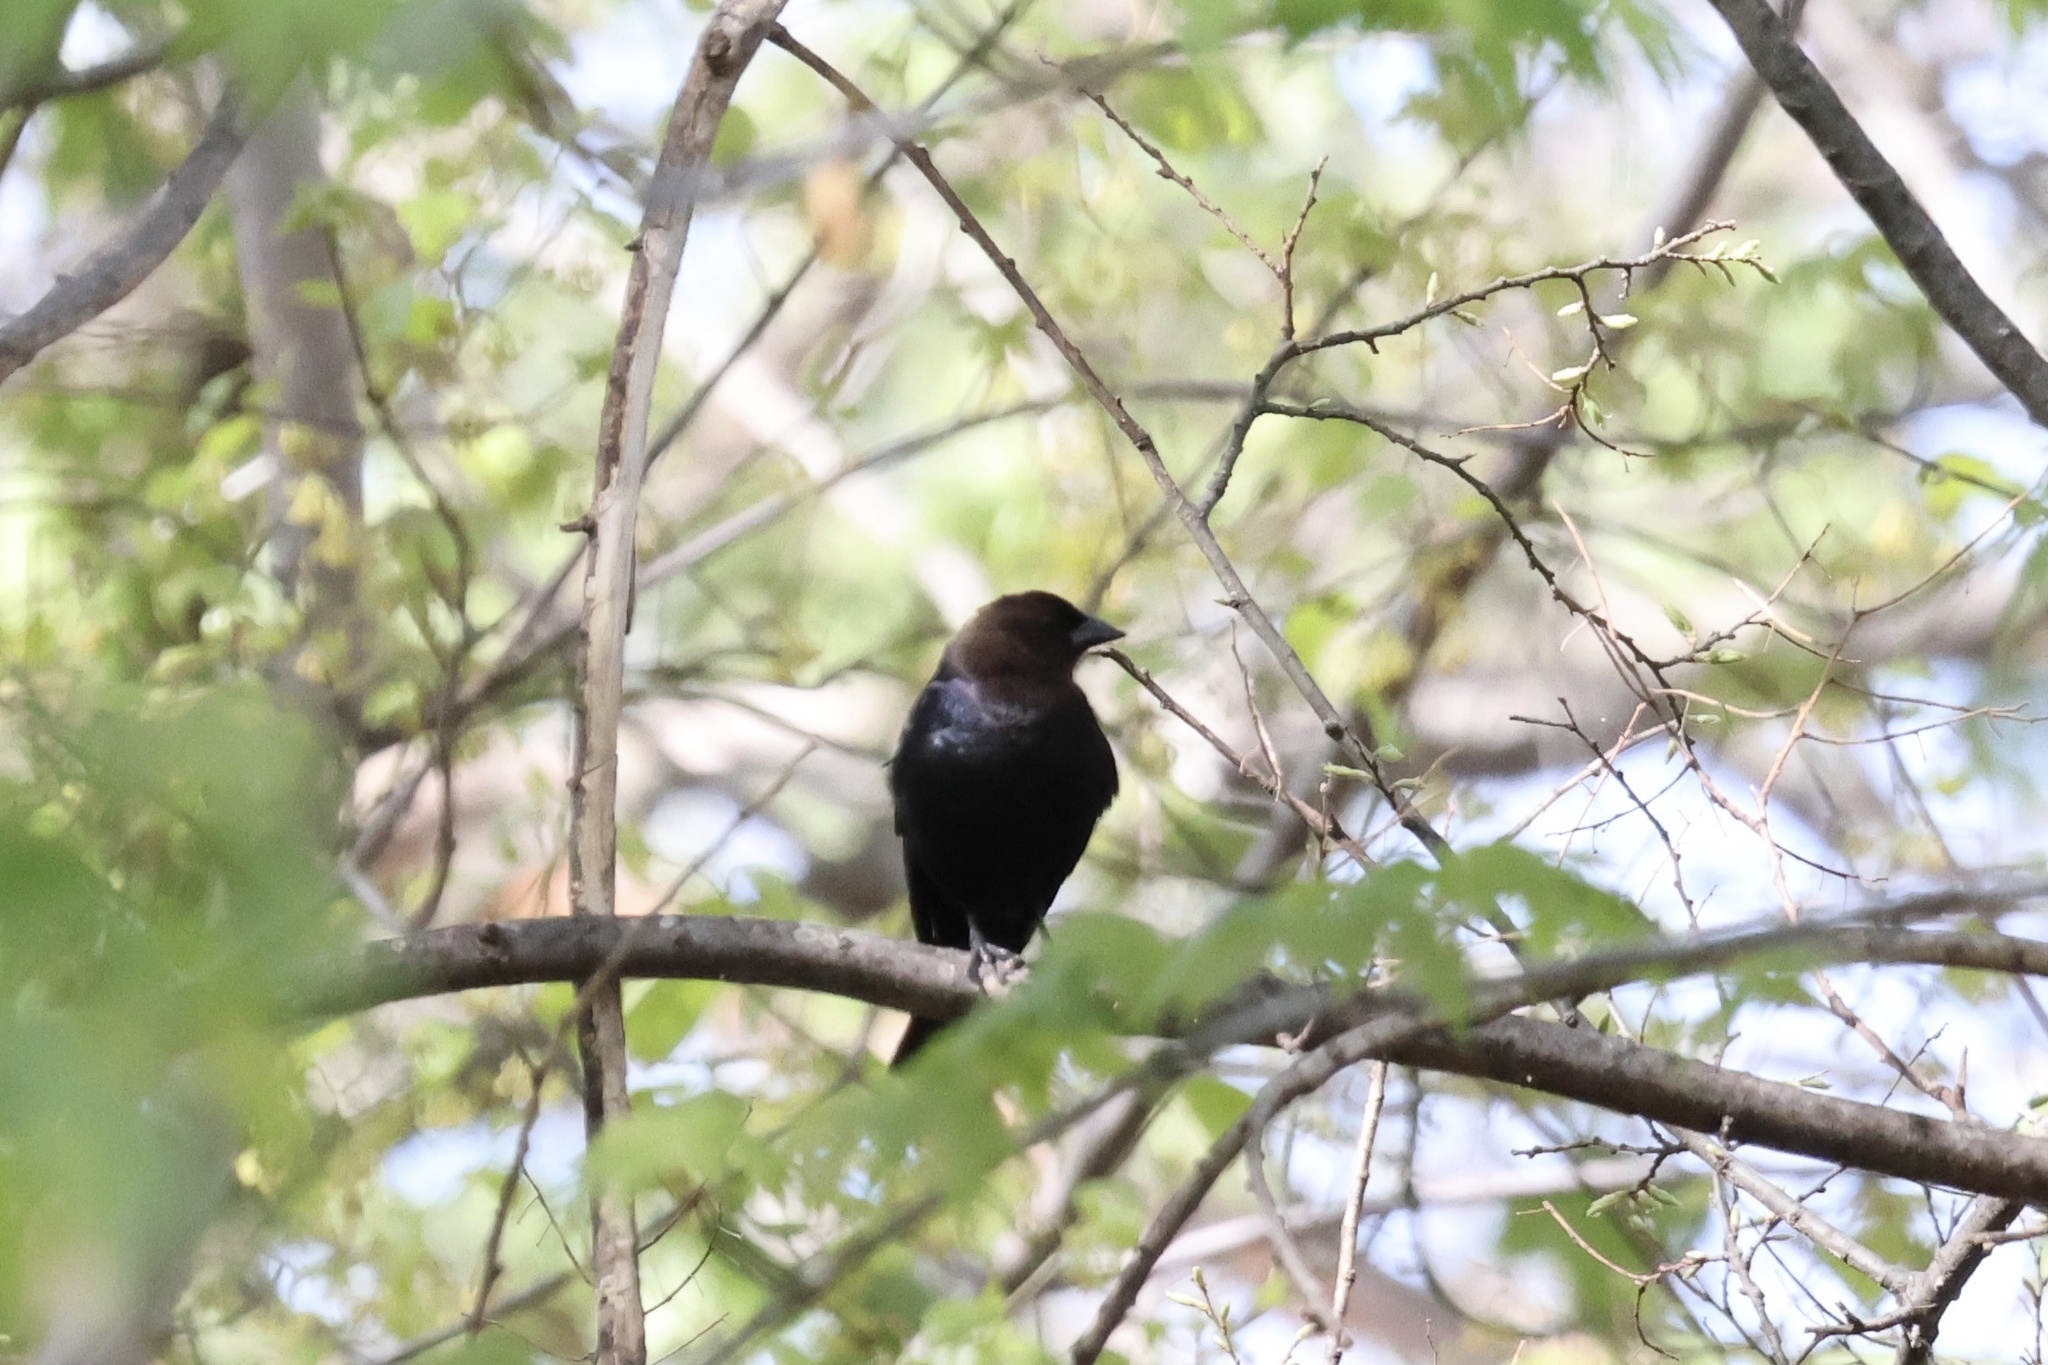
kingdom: Animalia
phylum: Chordata
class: Aves
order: Passeriformes
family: Icteridae
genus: Molothrus
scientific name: Molothrus ater
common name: Brown-headed cowbird
